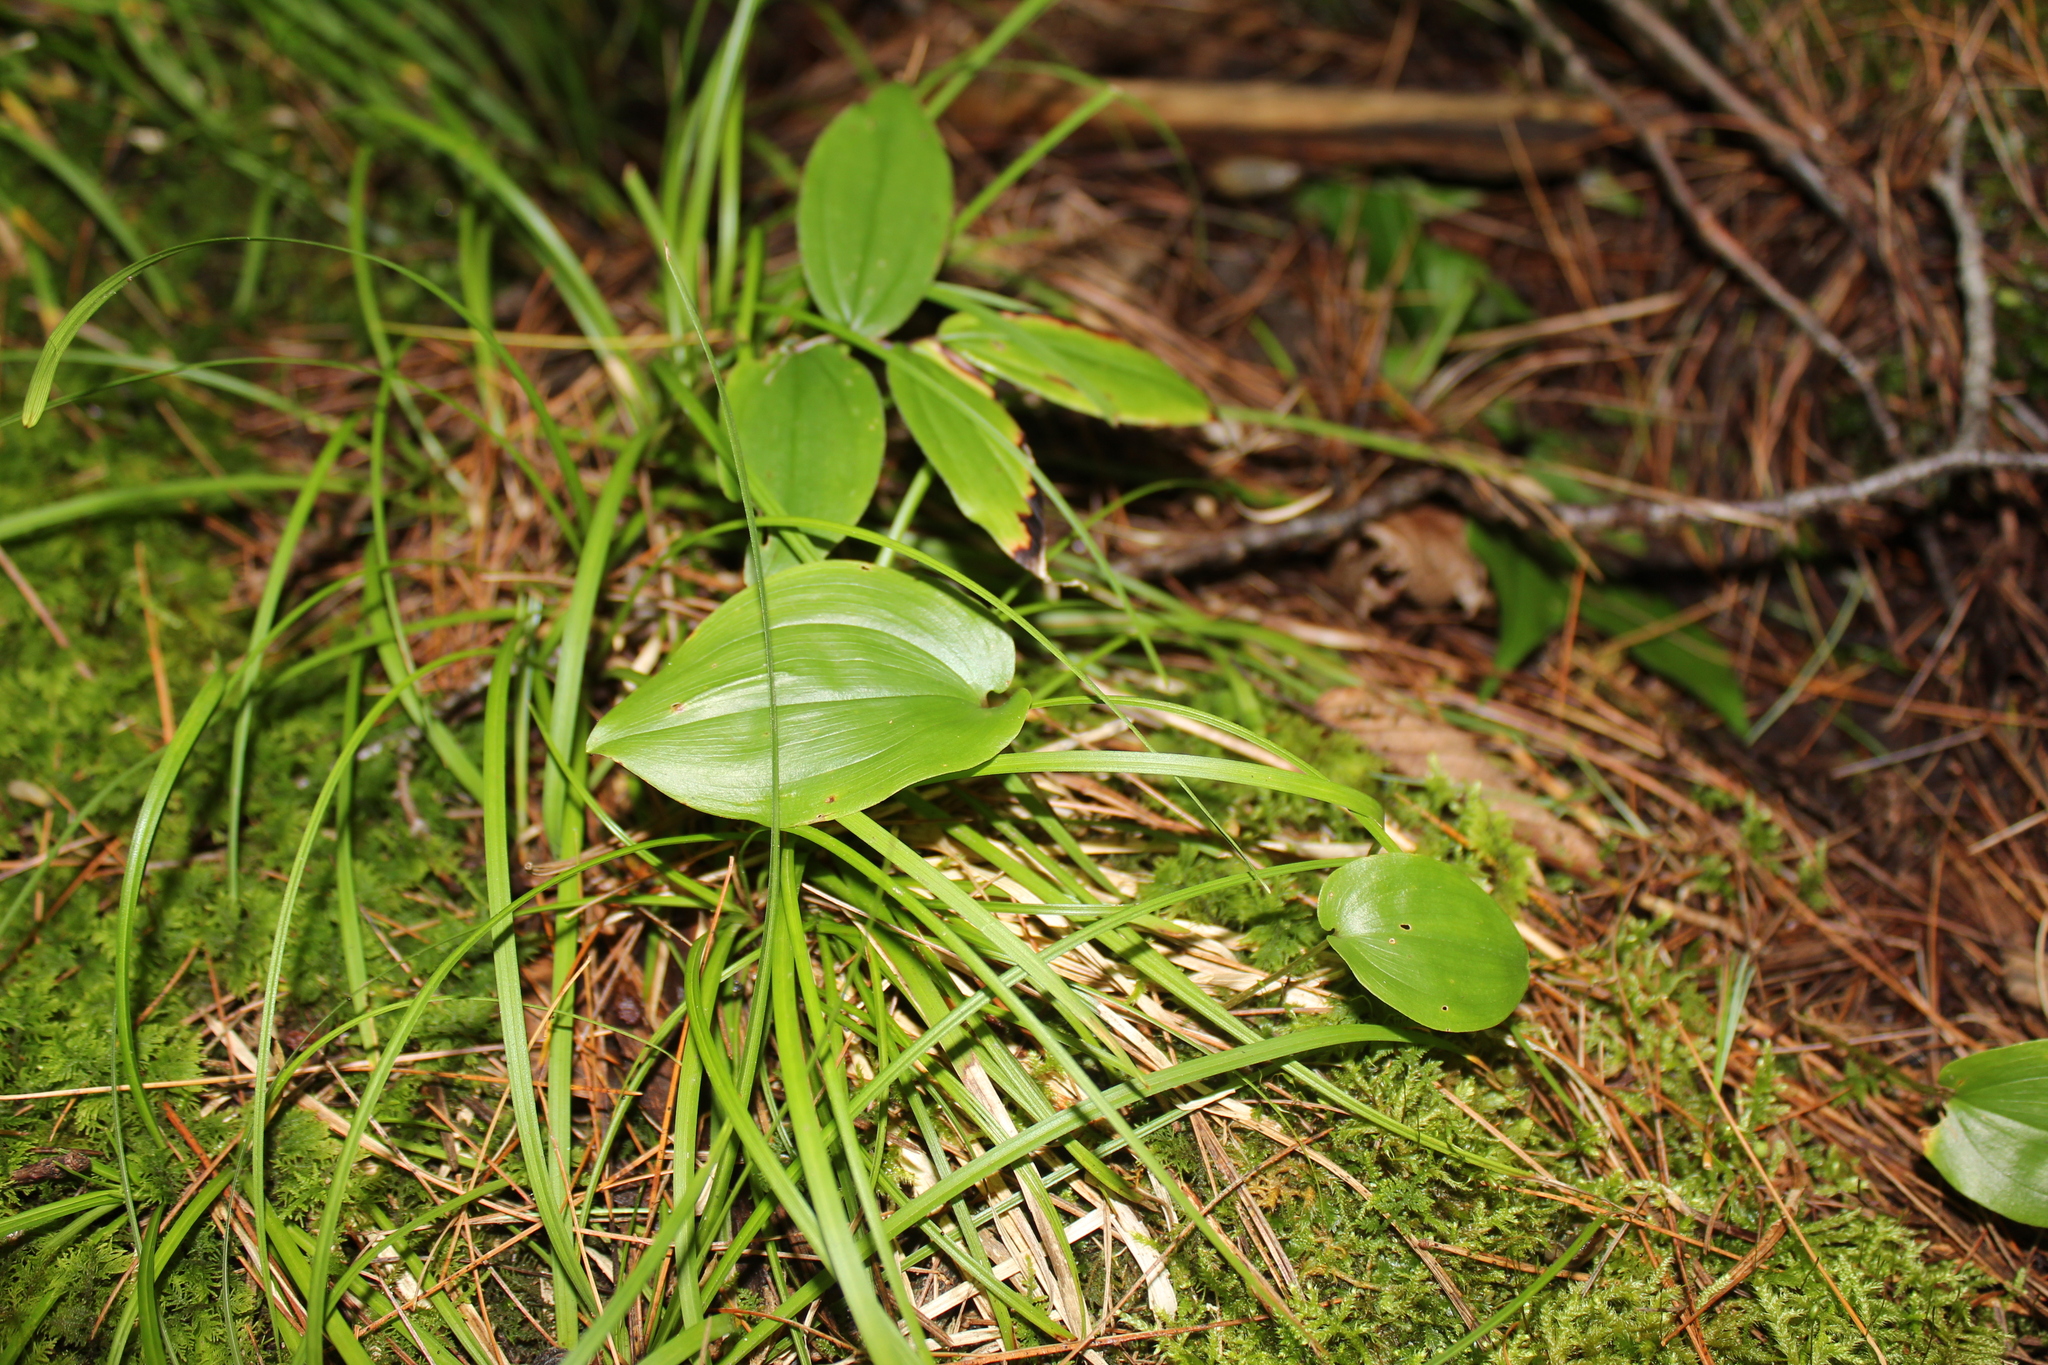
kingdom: Plantae
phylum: Tracheophyta
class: Liliopsida
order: Asparagales
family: Asparagaceae
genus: Maianthemum
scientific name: Maianthemum canadense
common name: False lily-of-the-valley
